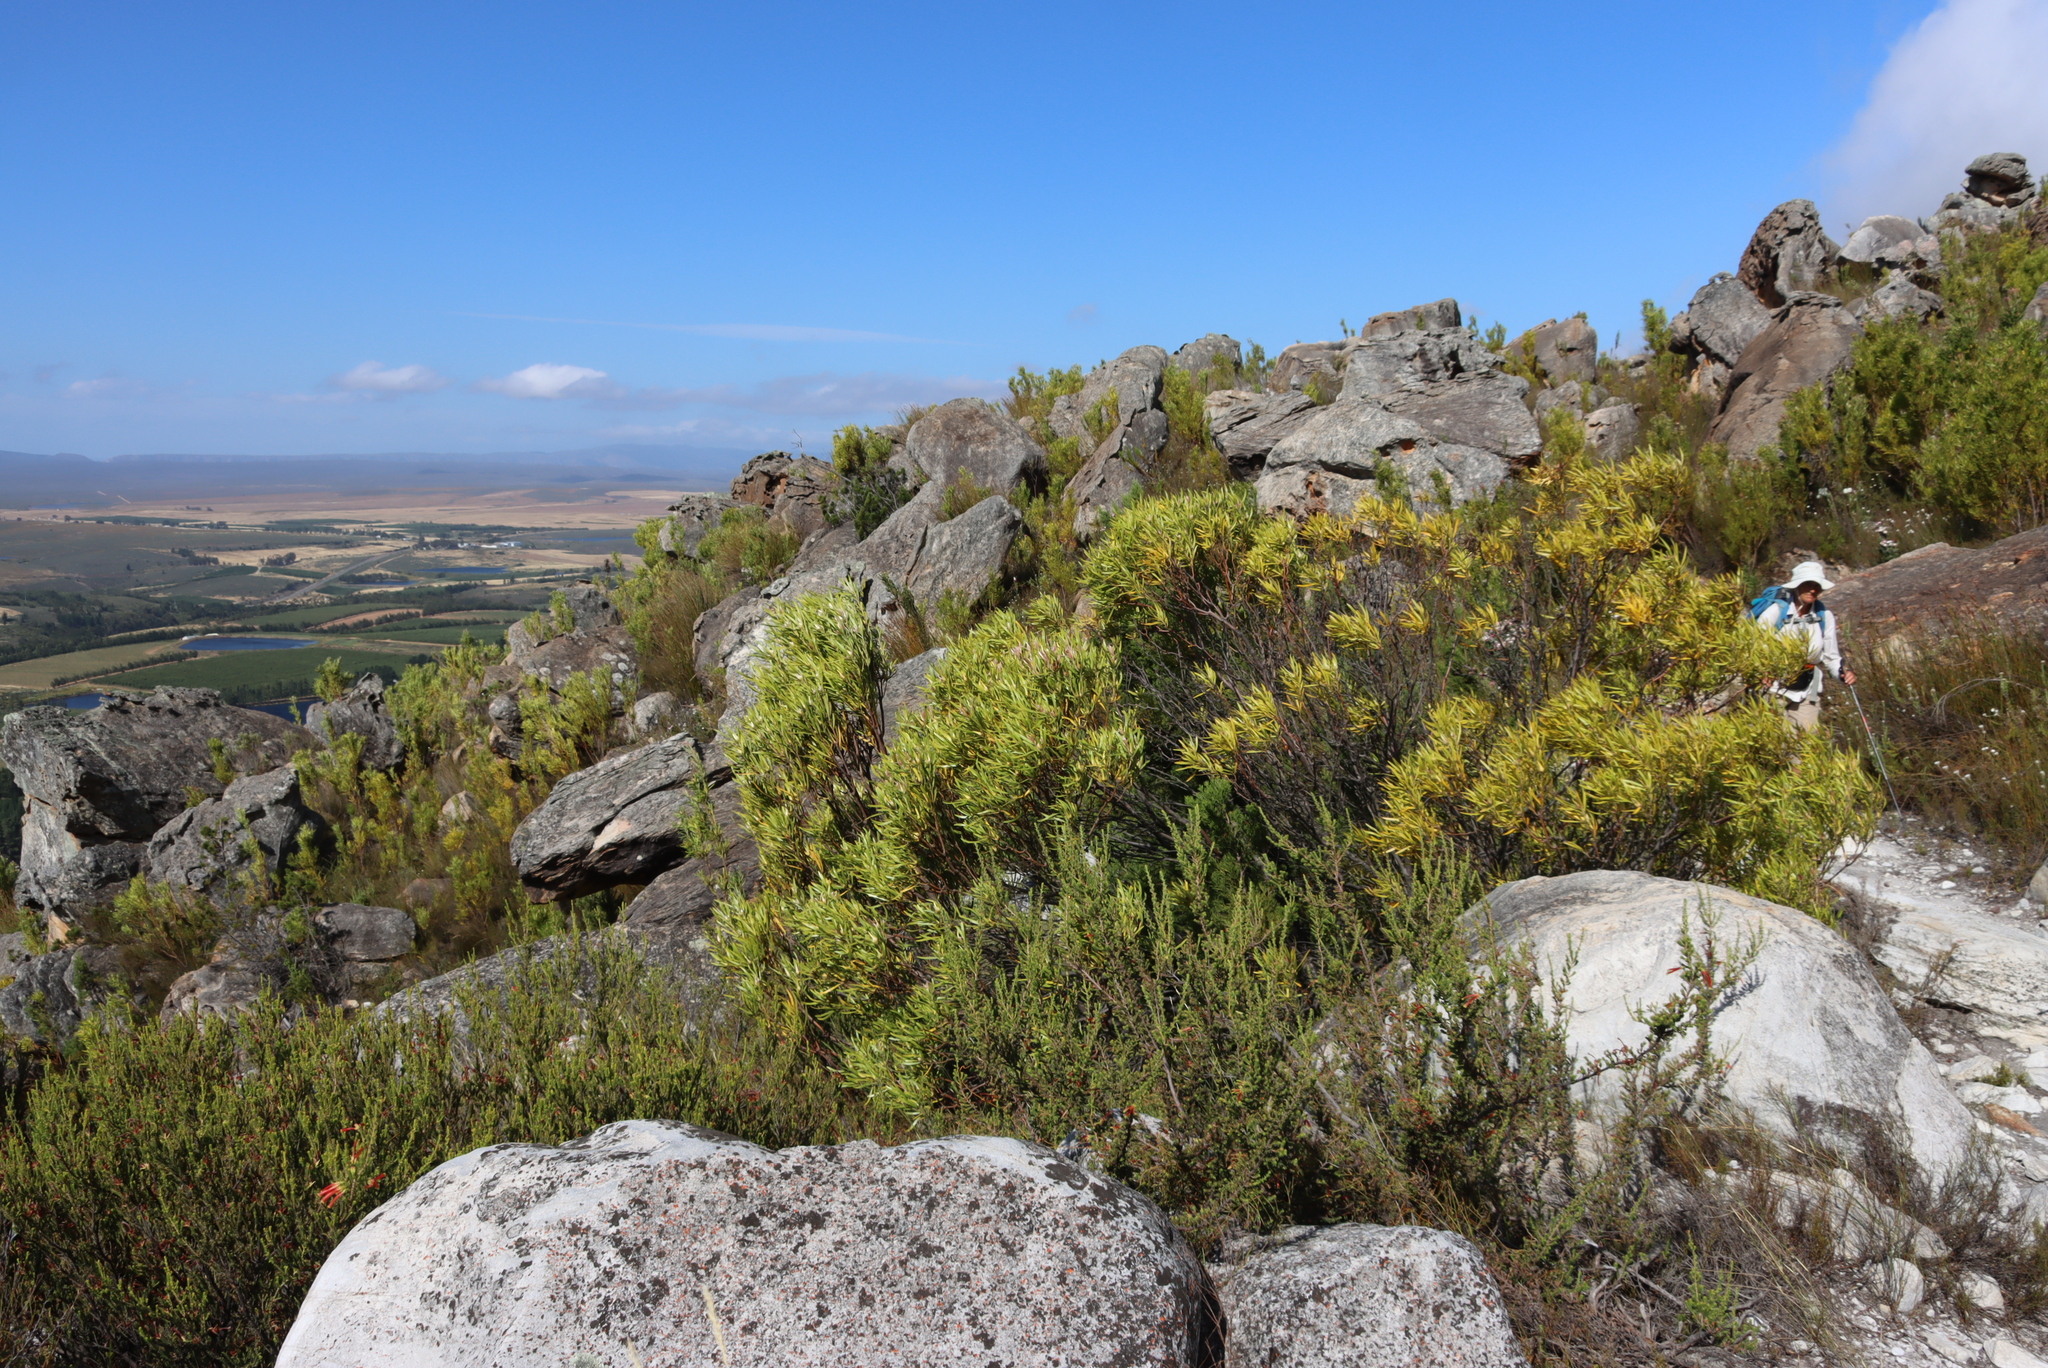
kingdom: Plantae
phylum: Tracheophyta
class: Magnoliopsida
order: Ericales
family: Ericaceae
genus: Erica
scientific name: Erica discolor
